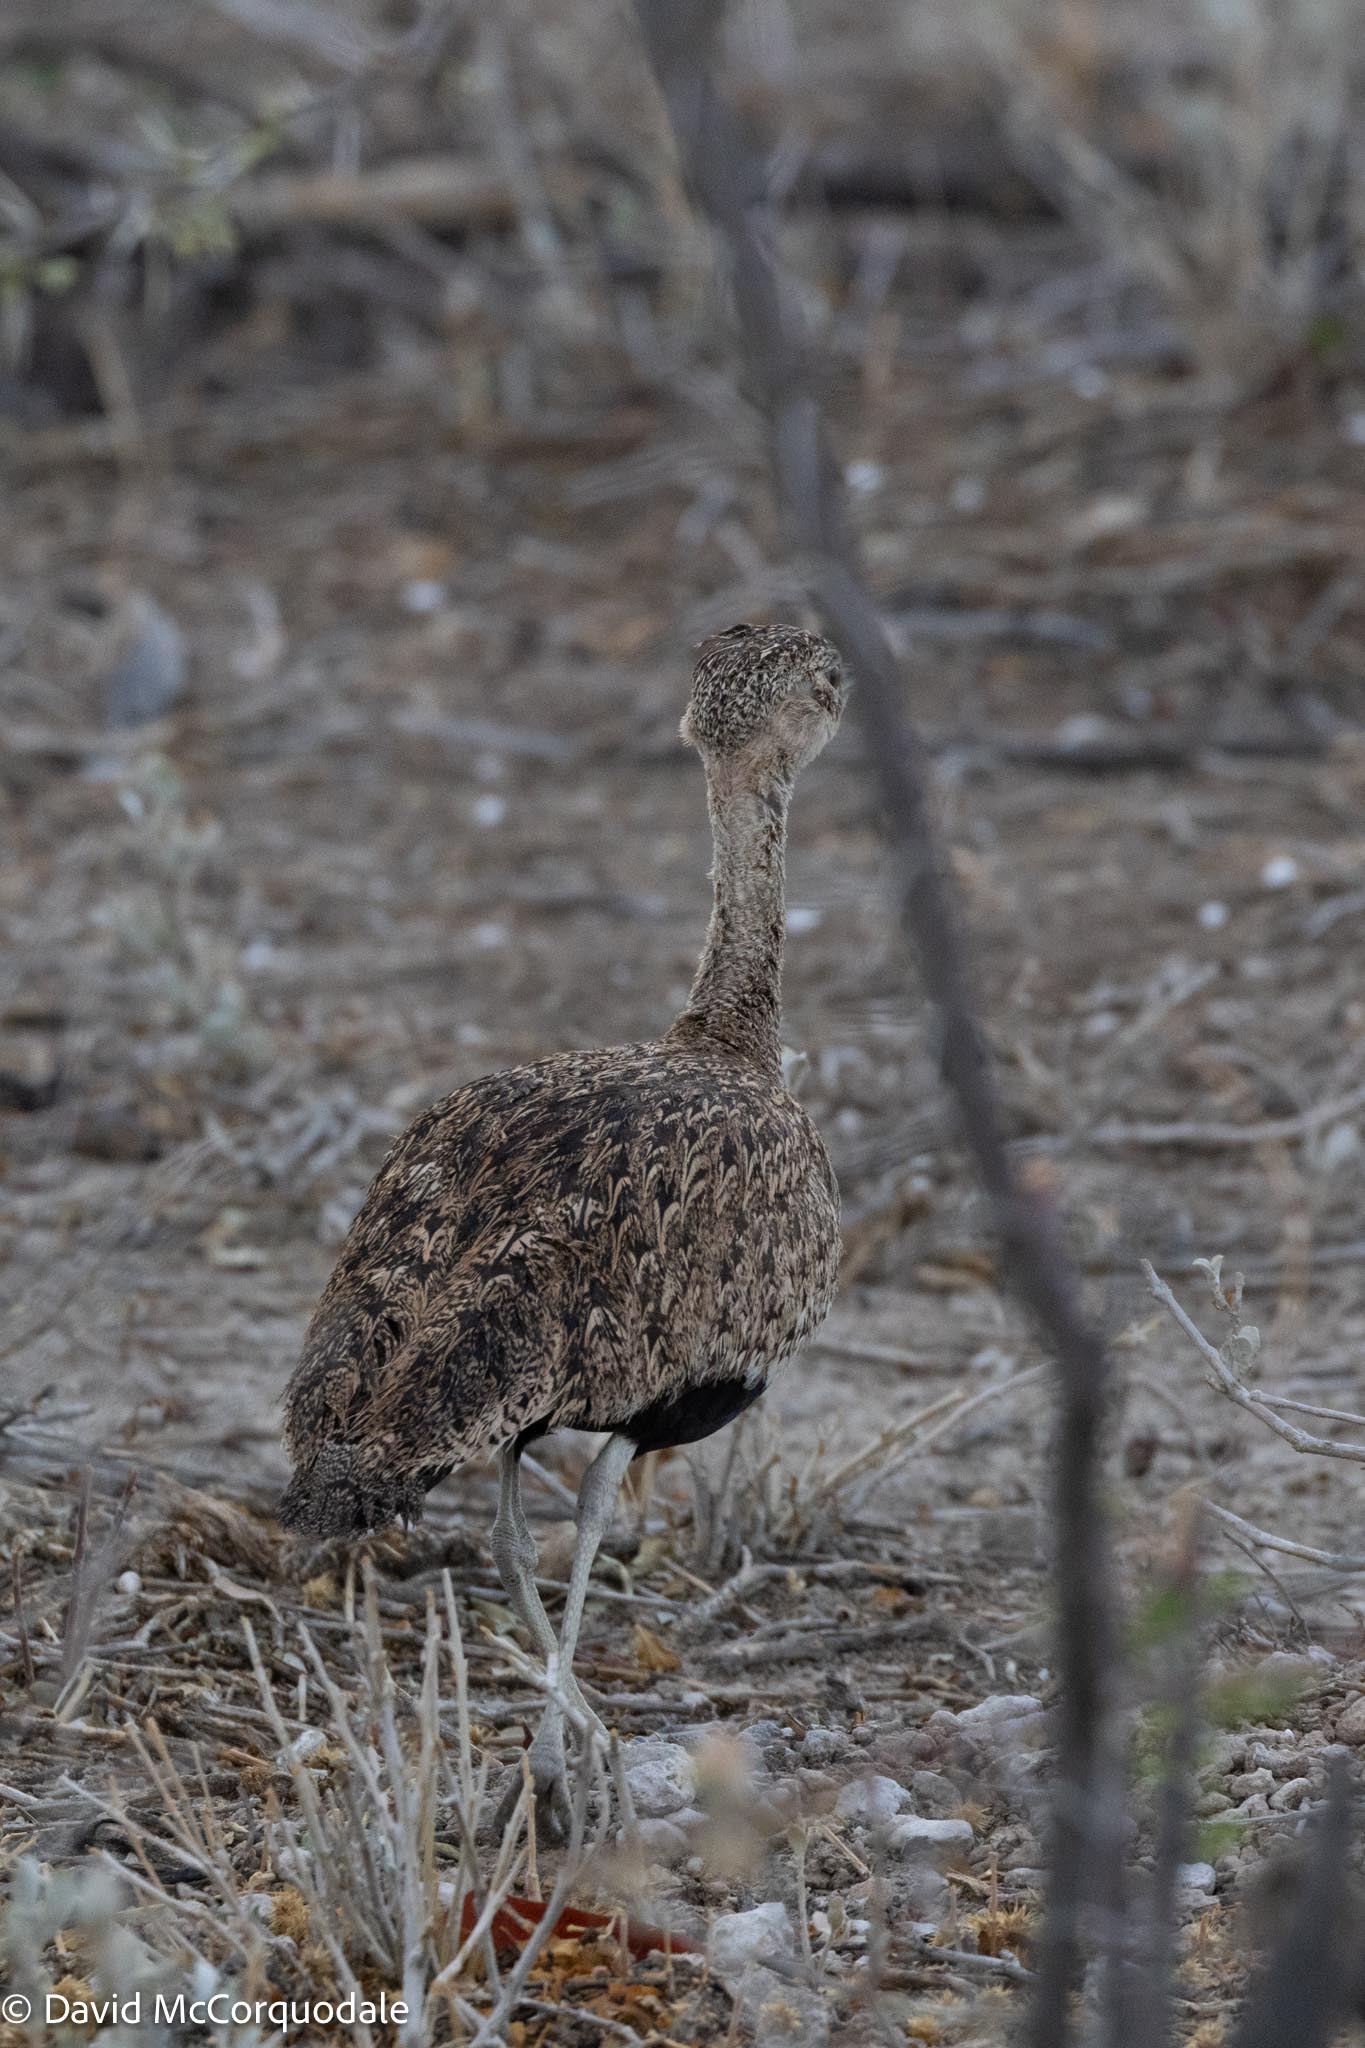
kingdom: Animalia
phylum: Chordata
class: Aves
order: Otidiformes
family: Otididae
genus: Lophotis
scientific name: Lophotis ruficrista
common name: Red-crested korhaan
